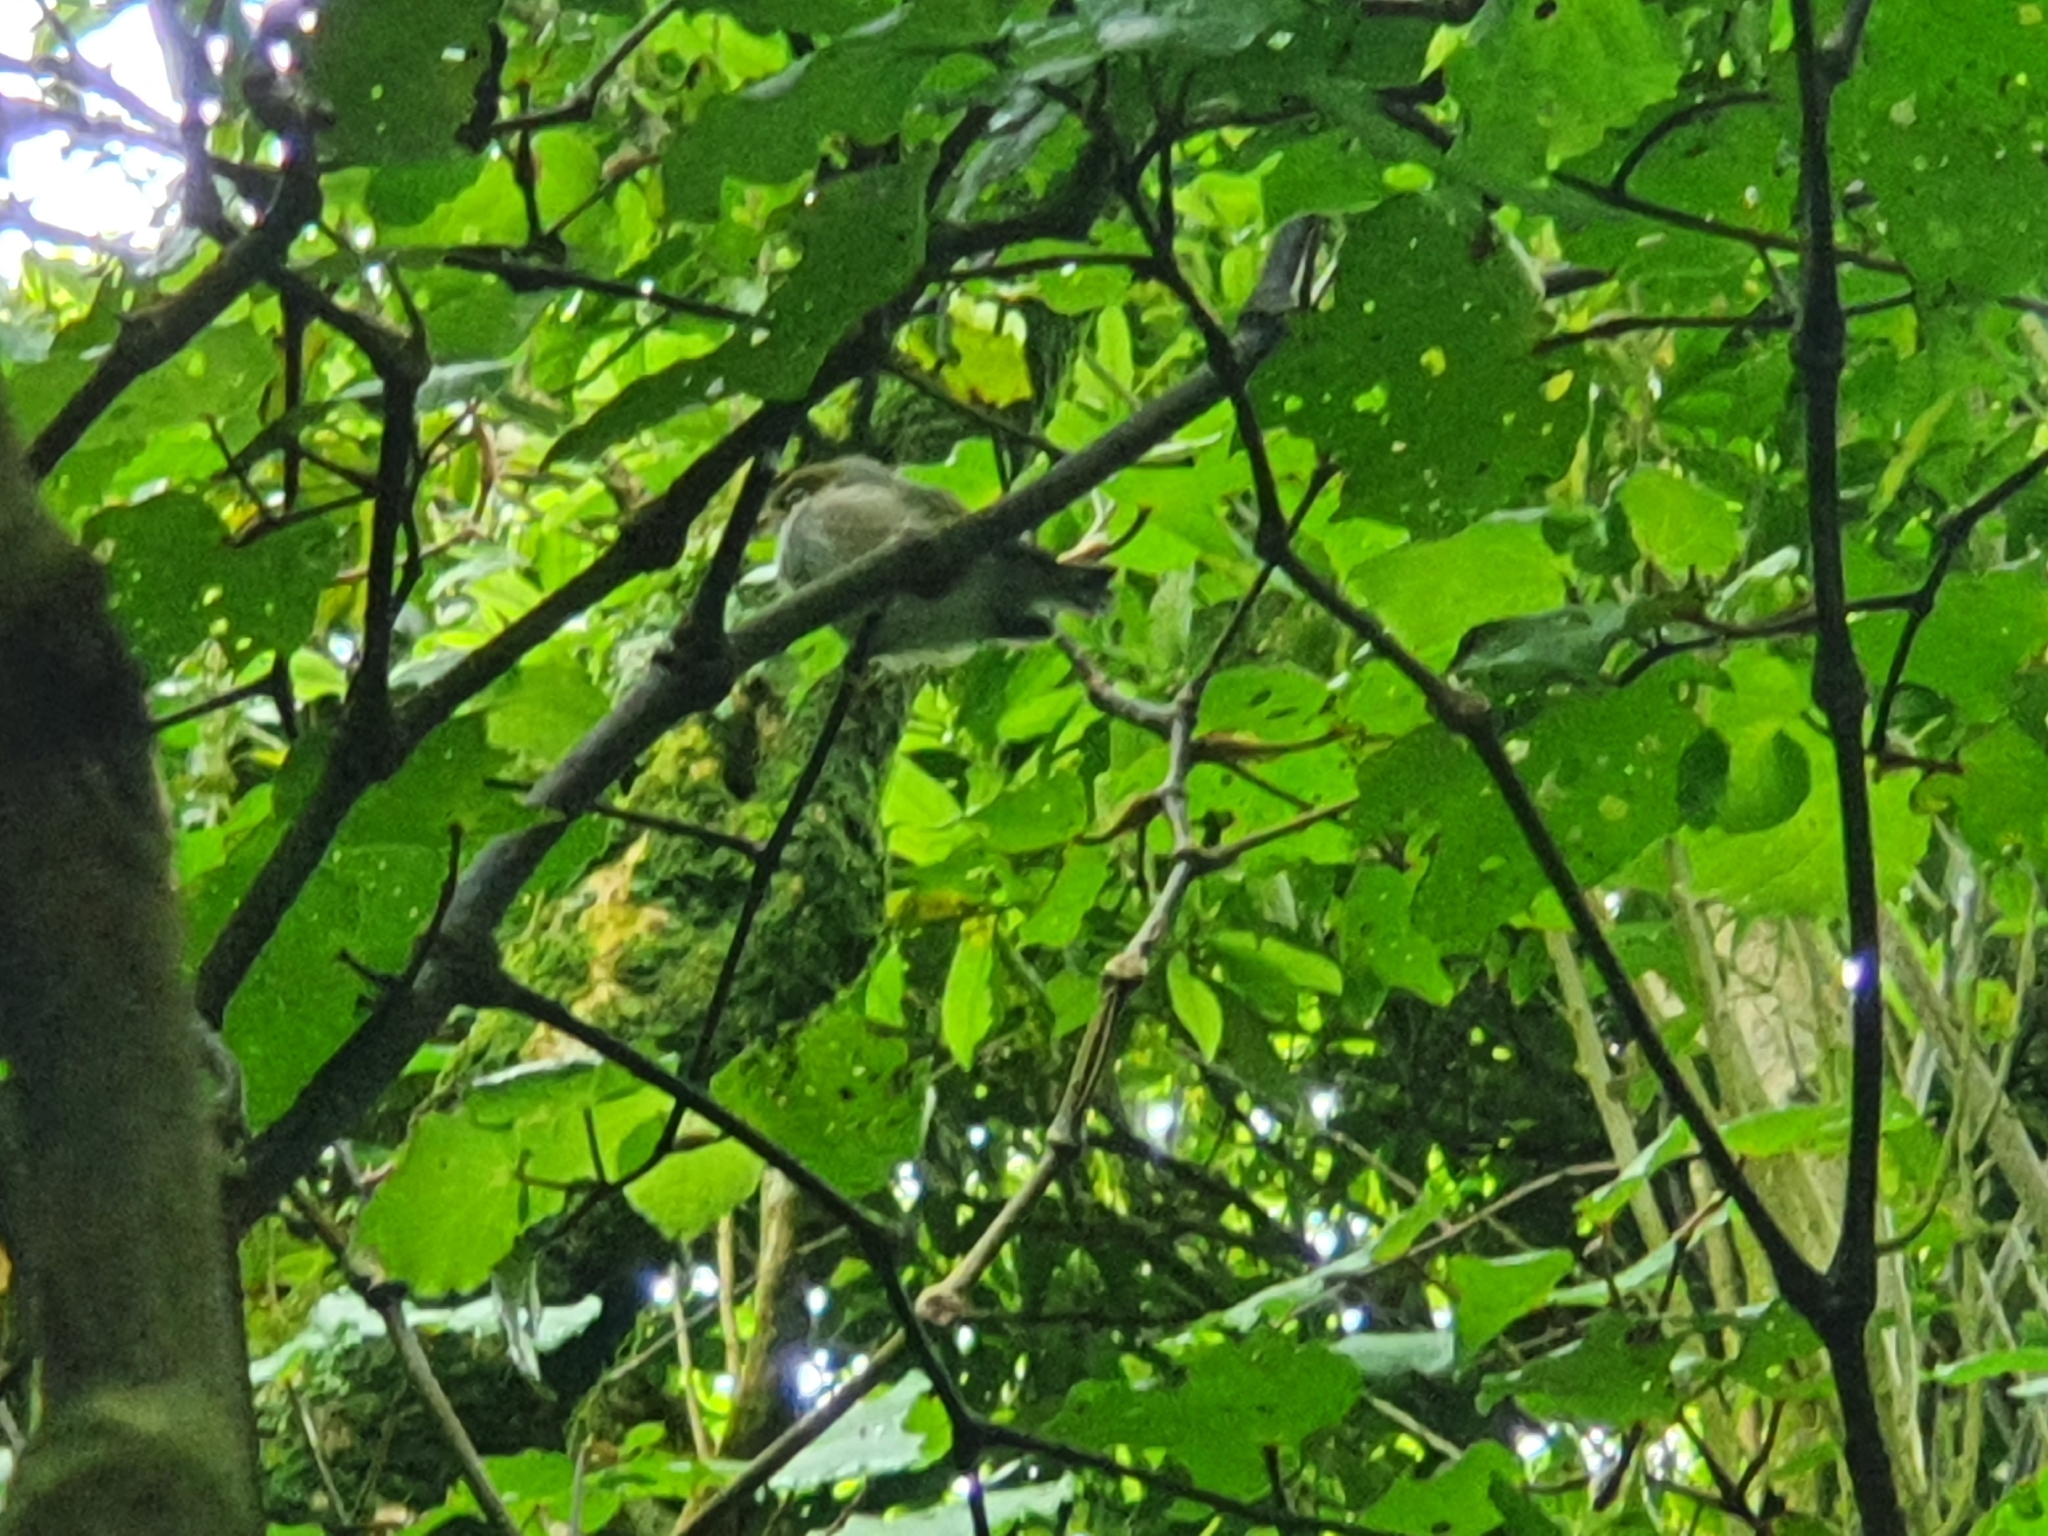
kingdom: Animalia
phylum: Chordata
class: Aves
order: Passeriformes
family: Zosteropidae
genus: Zosterops
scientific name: Zosterops lateralis
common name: Silvereye
